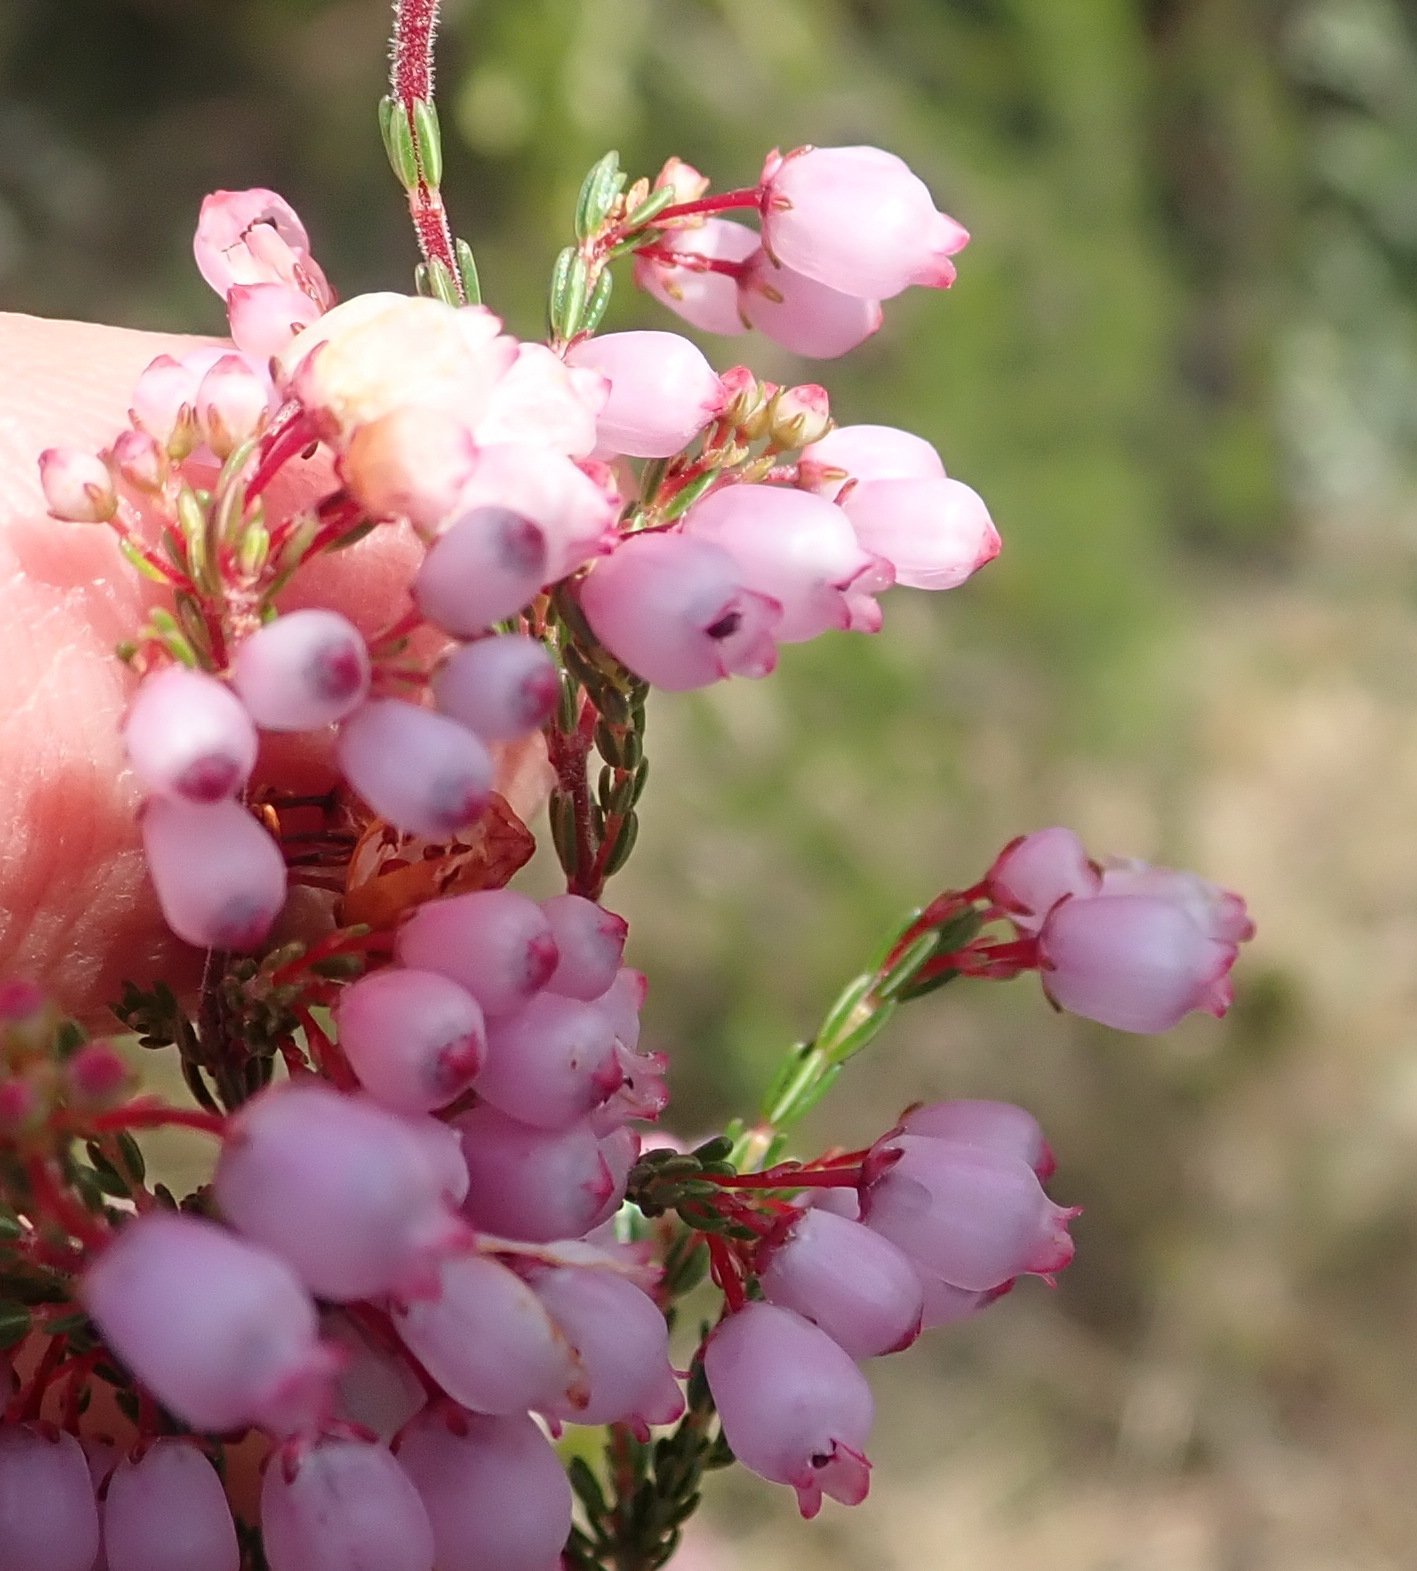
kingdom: Plantae
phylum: Tracheophyta
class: Magnoliopsida
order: Ericales
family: Ericaceae
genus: Erica
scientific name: Erica gracilis
